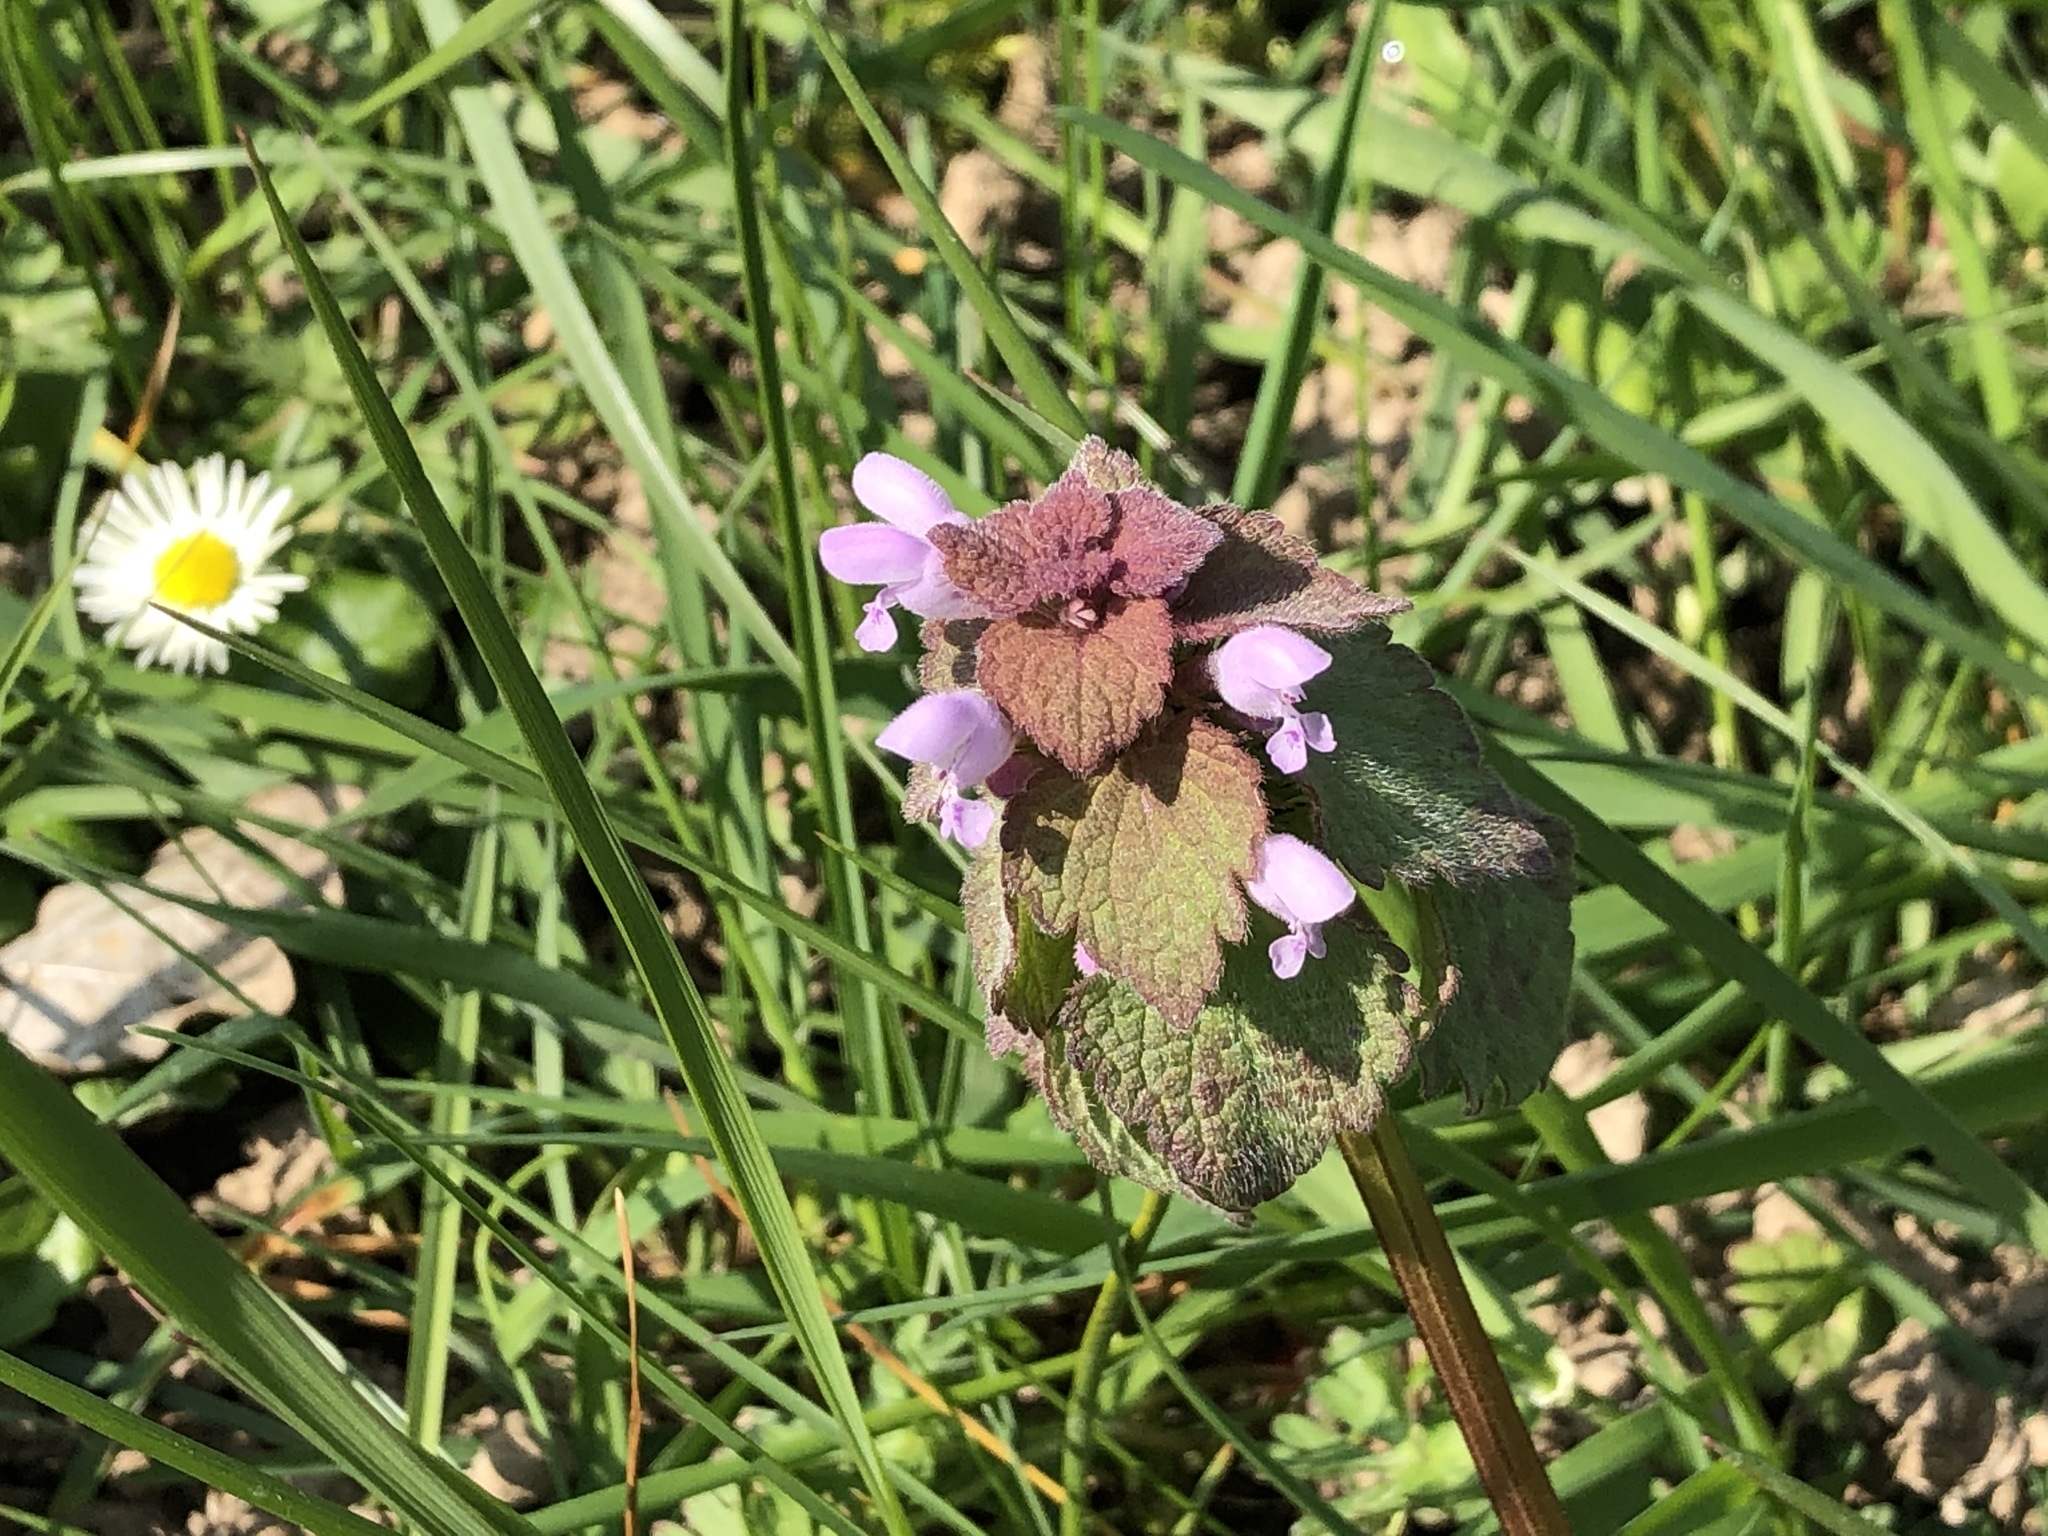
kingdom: Plantae
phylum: Tracheophyta
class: Magnoliopsida
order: Lamiales
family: Lamiaceae
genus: Lamium
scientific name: Lamium purpureum
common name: Red dead-nettle
